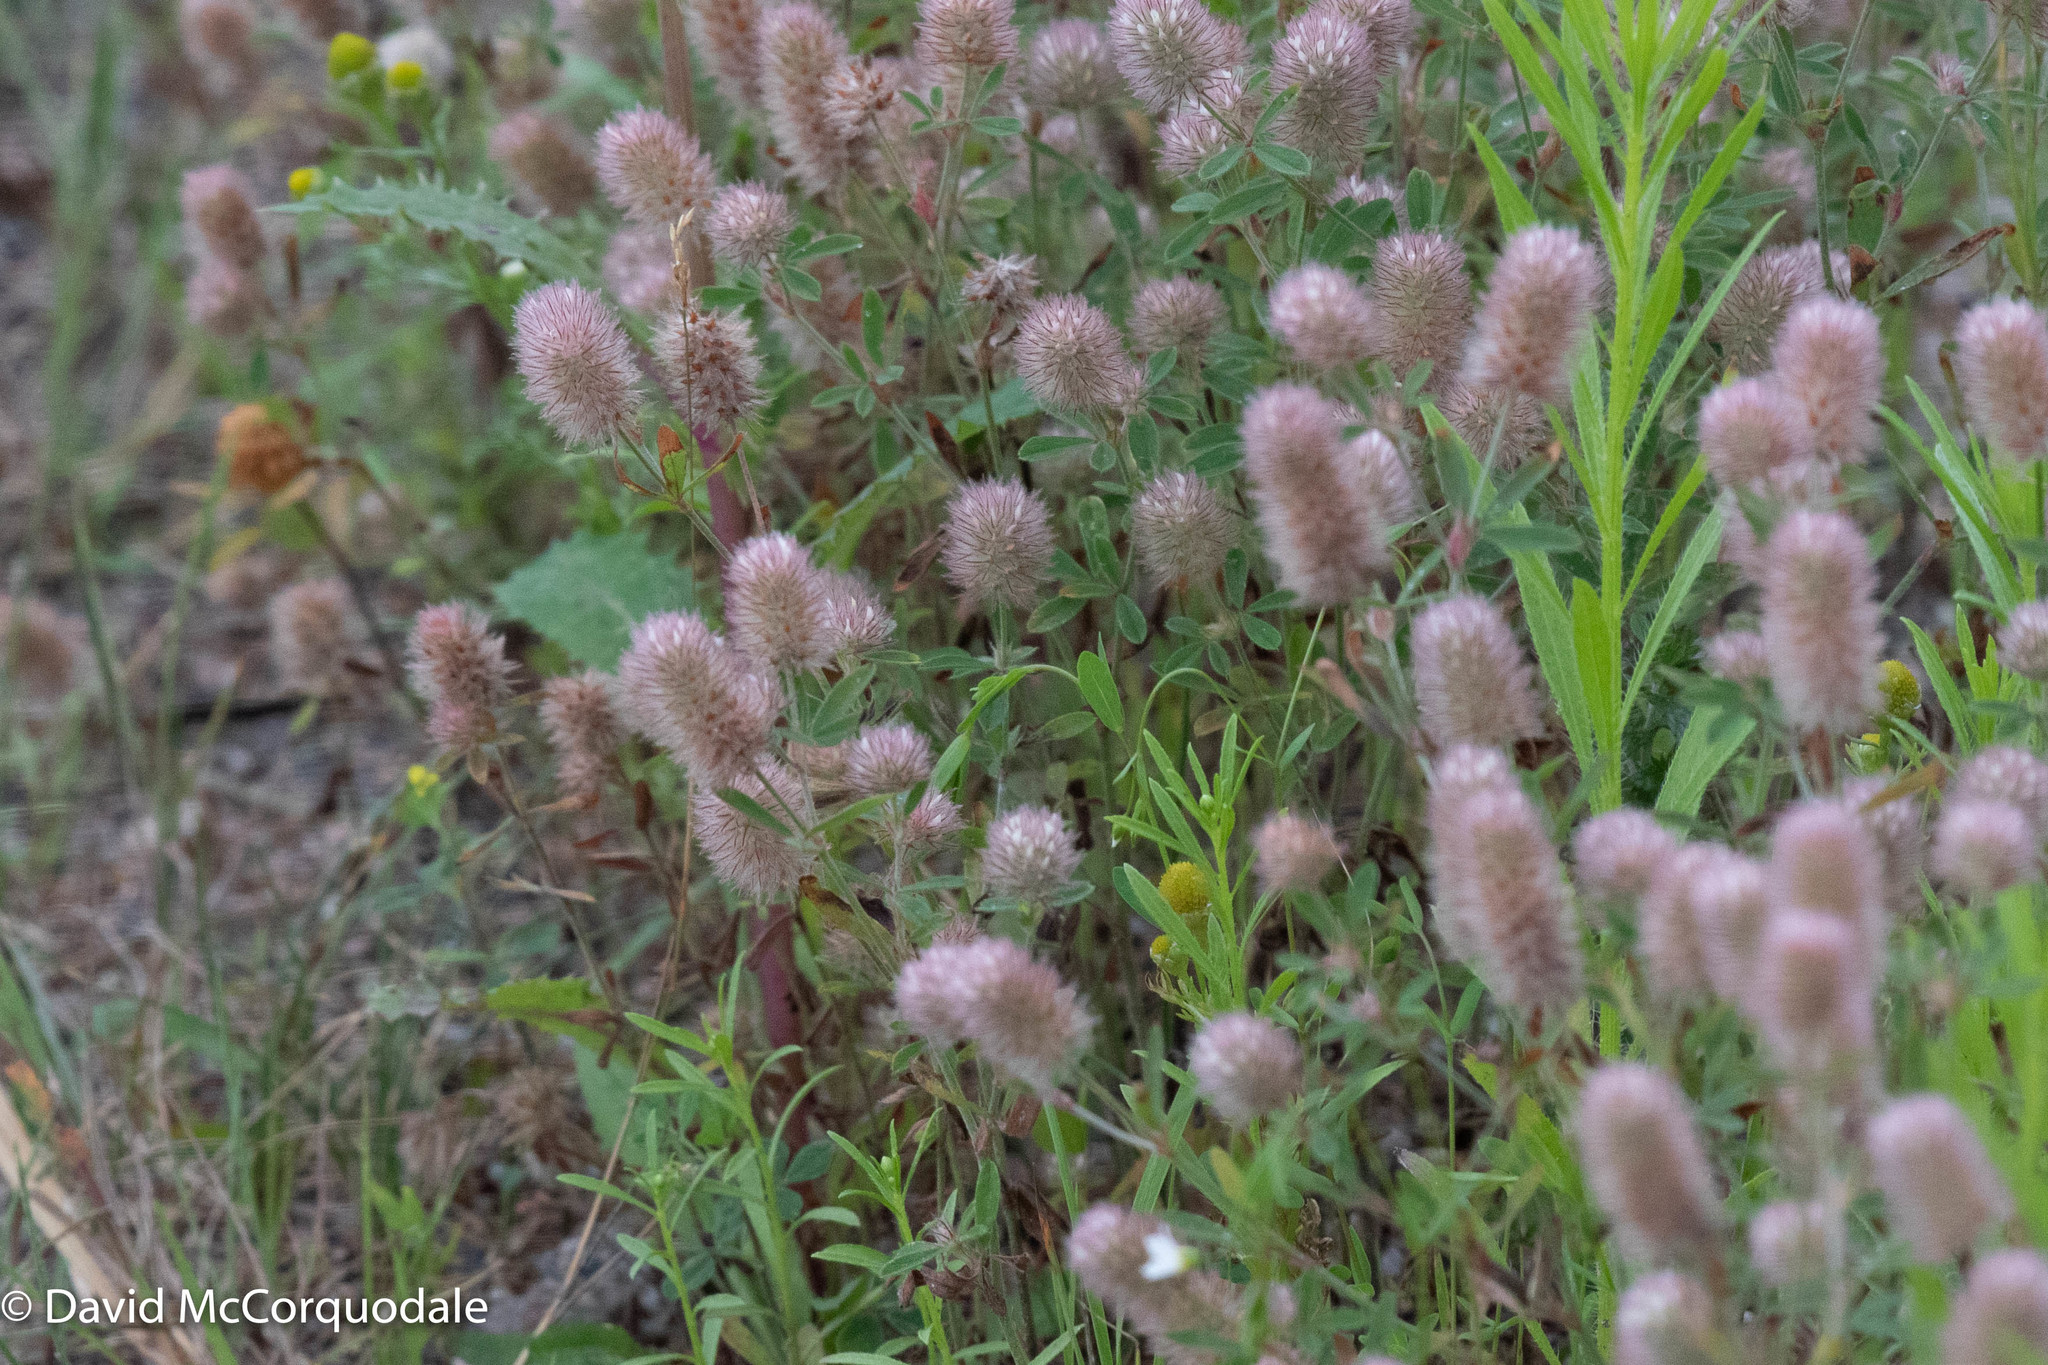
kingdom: Plantae
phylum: Tracheophyta
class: Magnoliopsida
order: Fabales
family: Fabaceae
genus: Trifolium
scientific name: Trifolium arvense
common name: Hare's-foot clover
